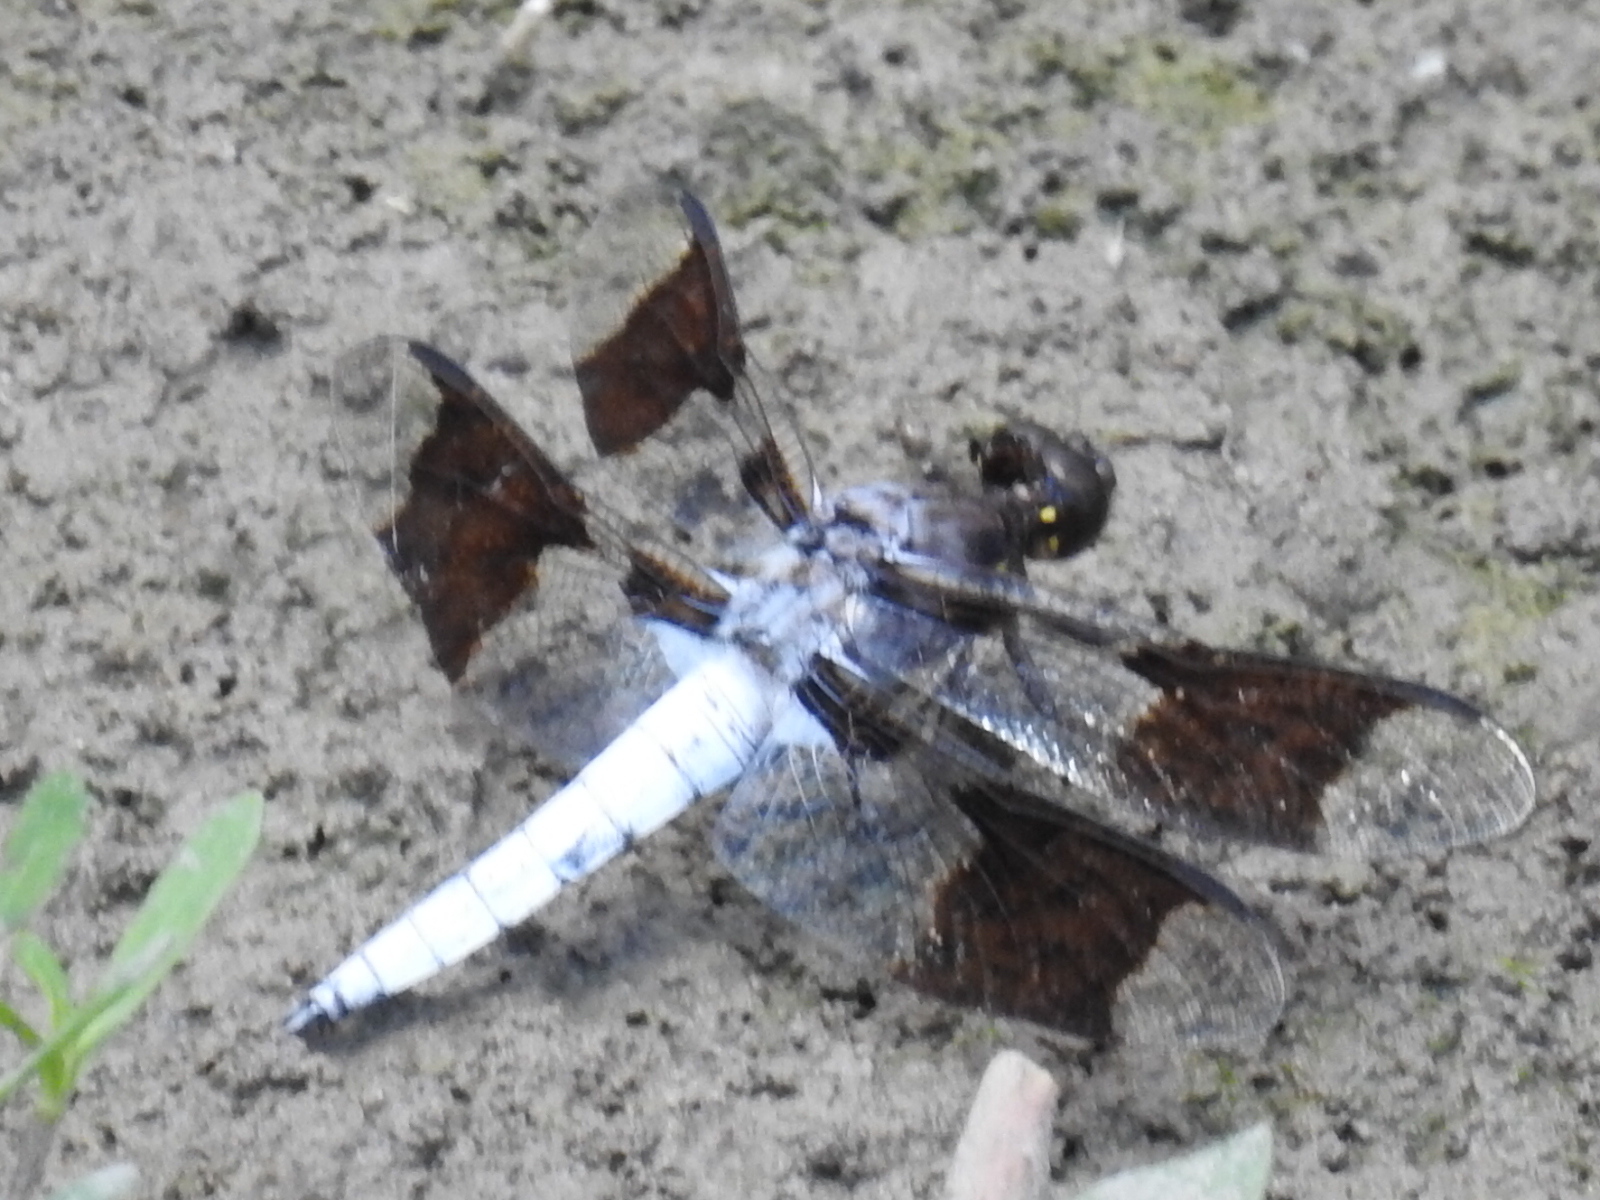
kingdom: Animalia
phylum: Arthropoda
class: Insecta
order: Odonata
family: Libellulidae
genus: Plathemis
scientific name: Plathemis lydia
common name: Common whitetail
